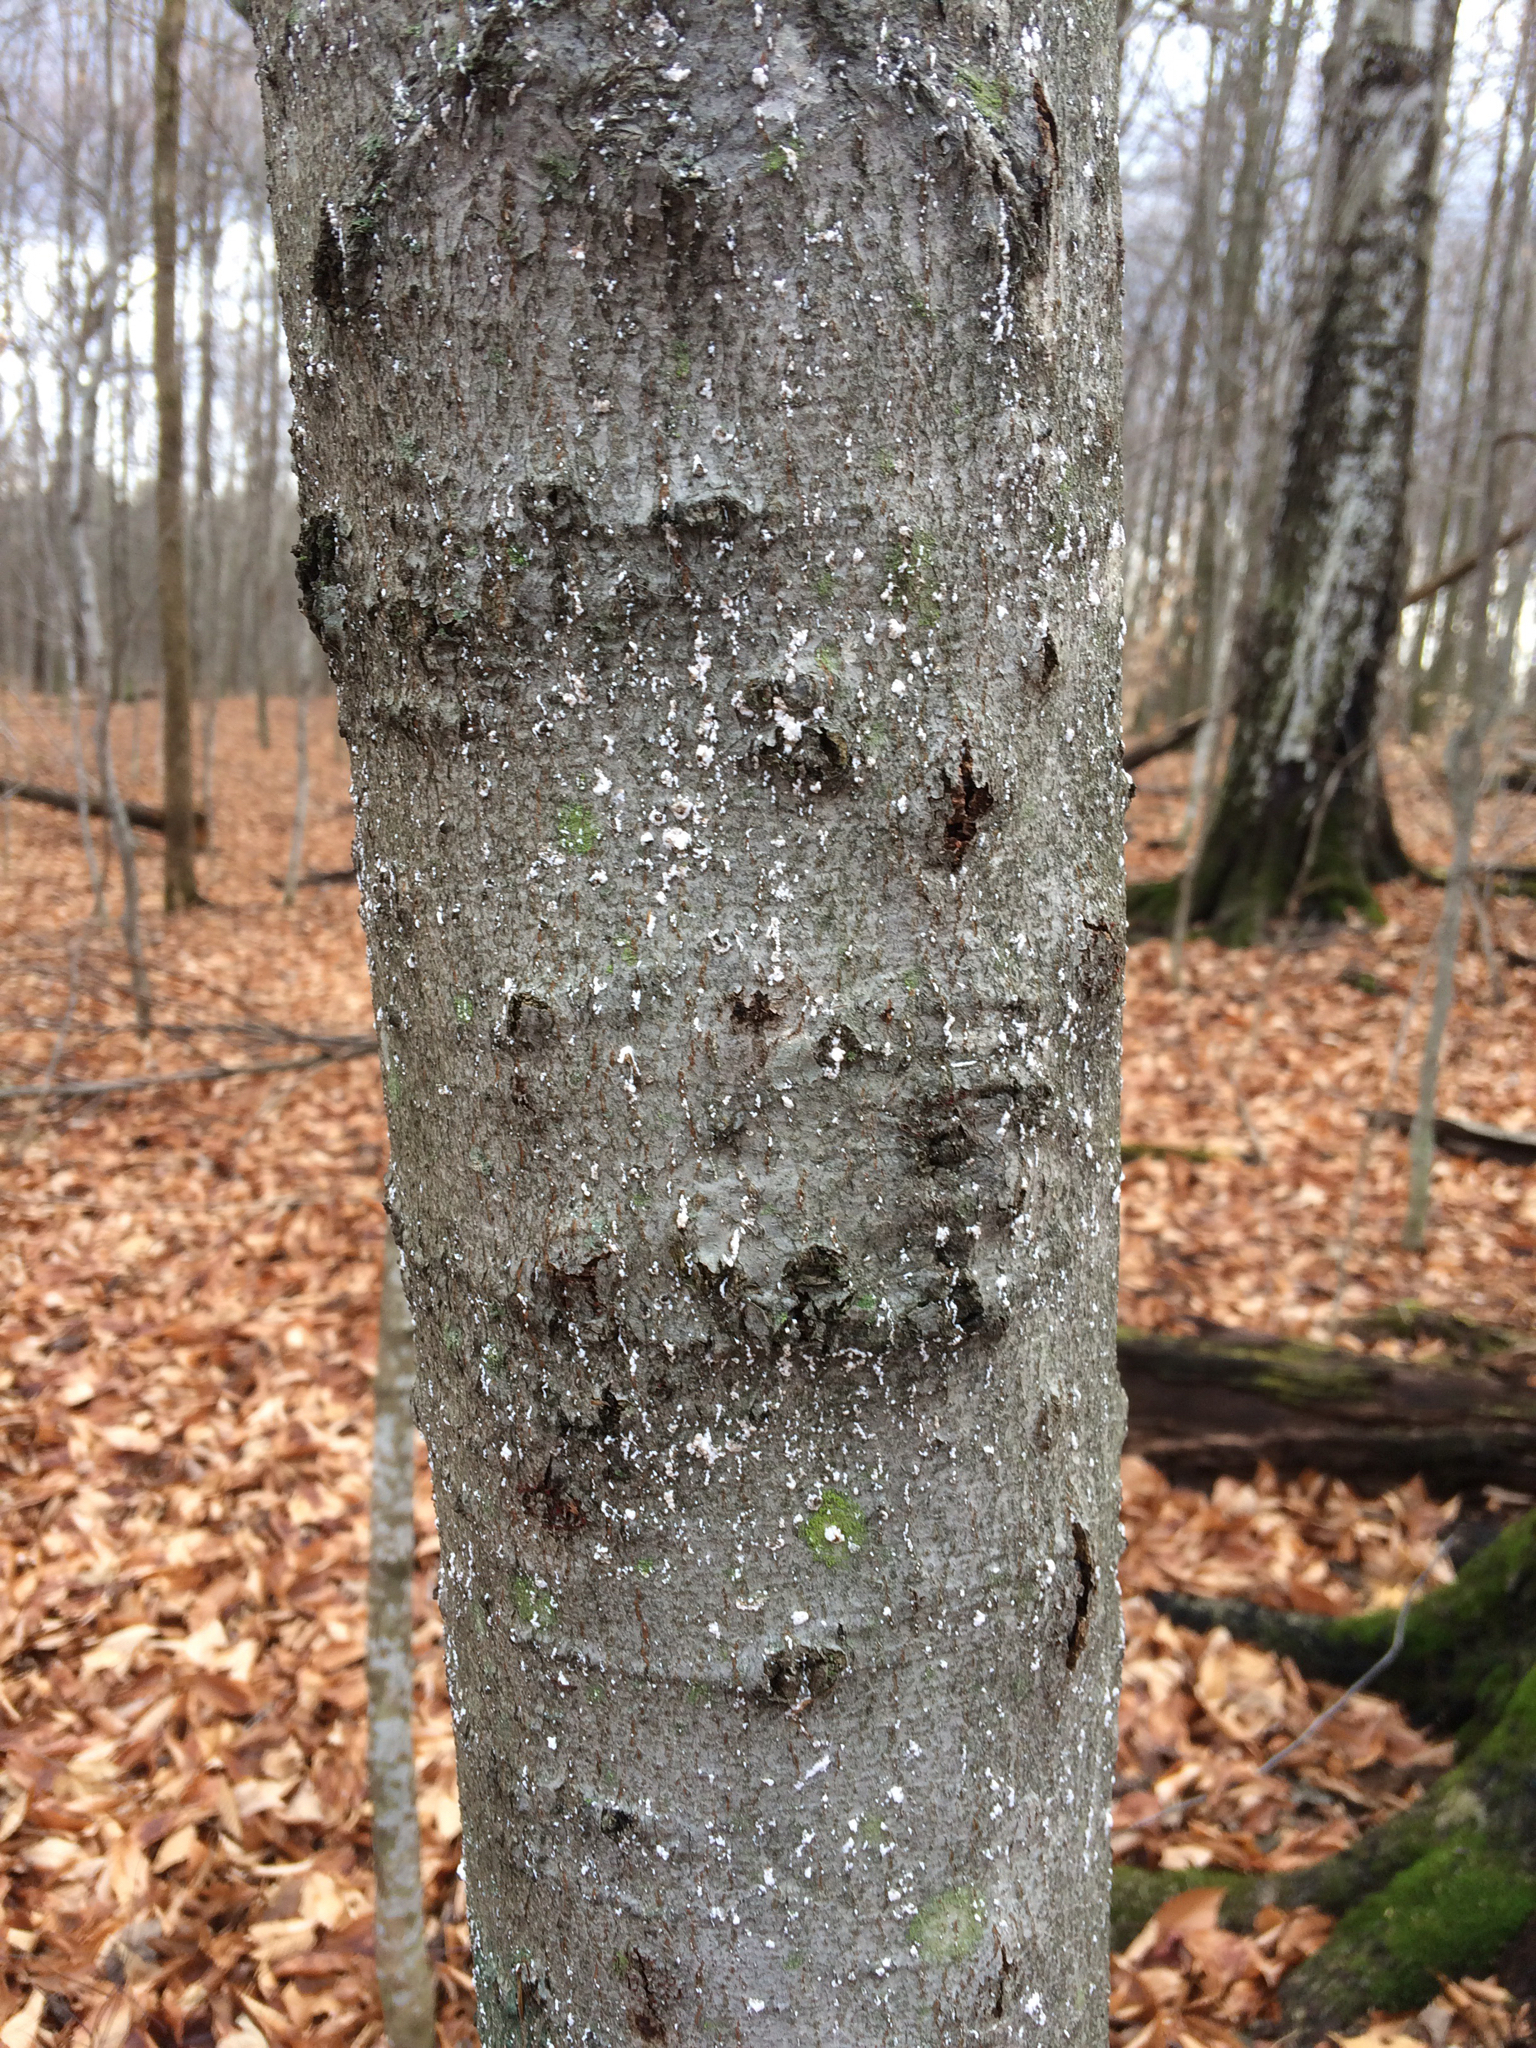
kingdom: Animalia
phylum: Arthropoda
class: Insecta
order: Hemiptera
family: Eriococcidae
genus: Cryptococcus
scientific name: Cryptococcus fagisuga
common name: Beech scale
